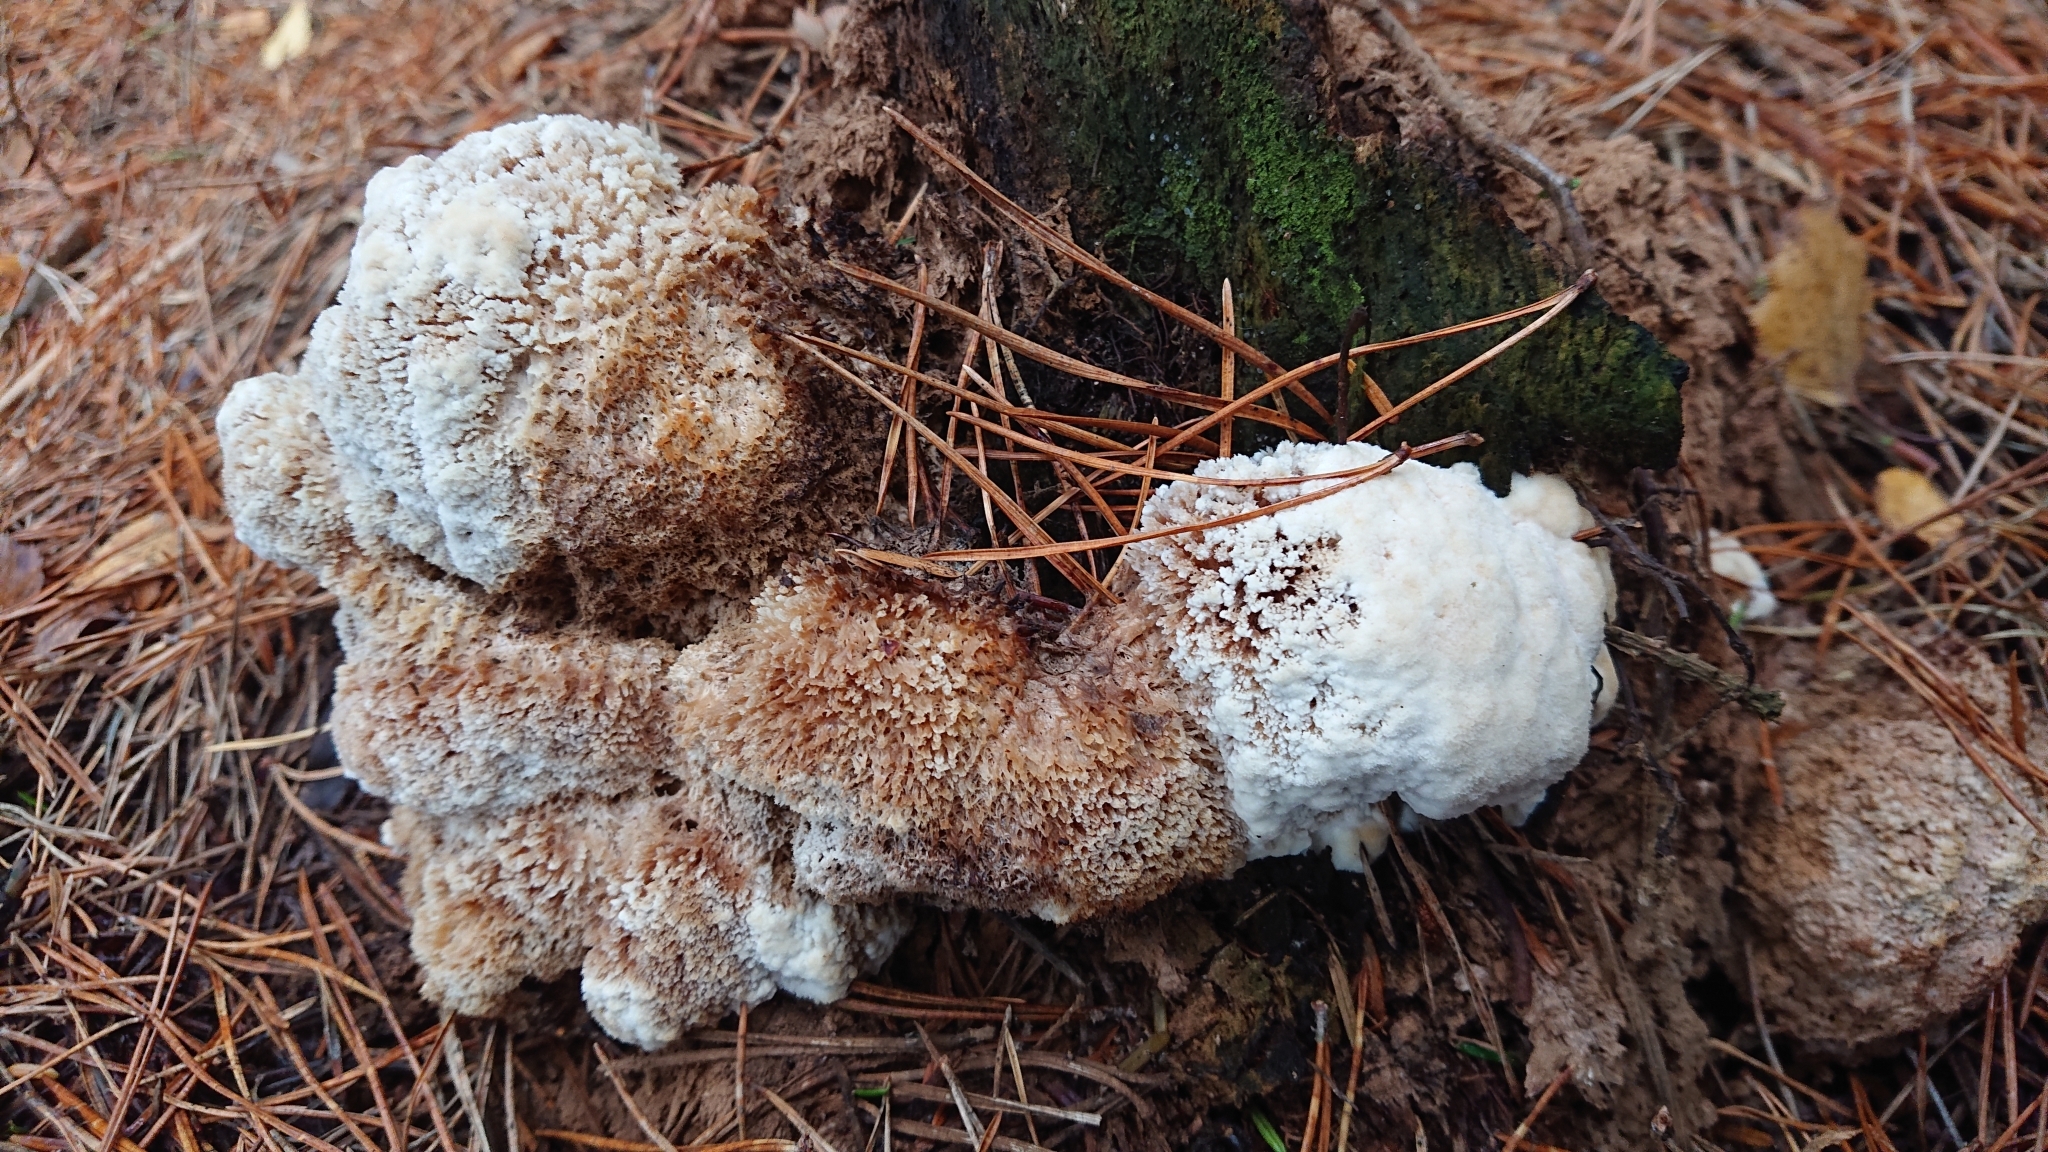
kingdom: Fungi
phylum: Basidiomycota
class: Agaricomycetes
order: Polyporales
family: Dacryobolaceae
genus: Postia
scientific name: Postia ptychogaster
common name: Powderpuff bracket
